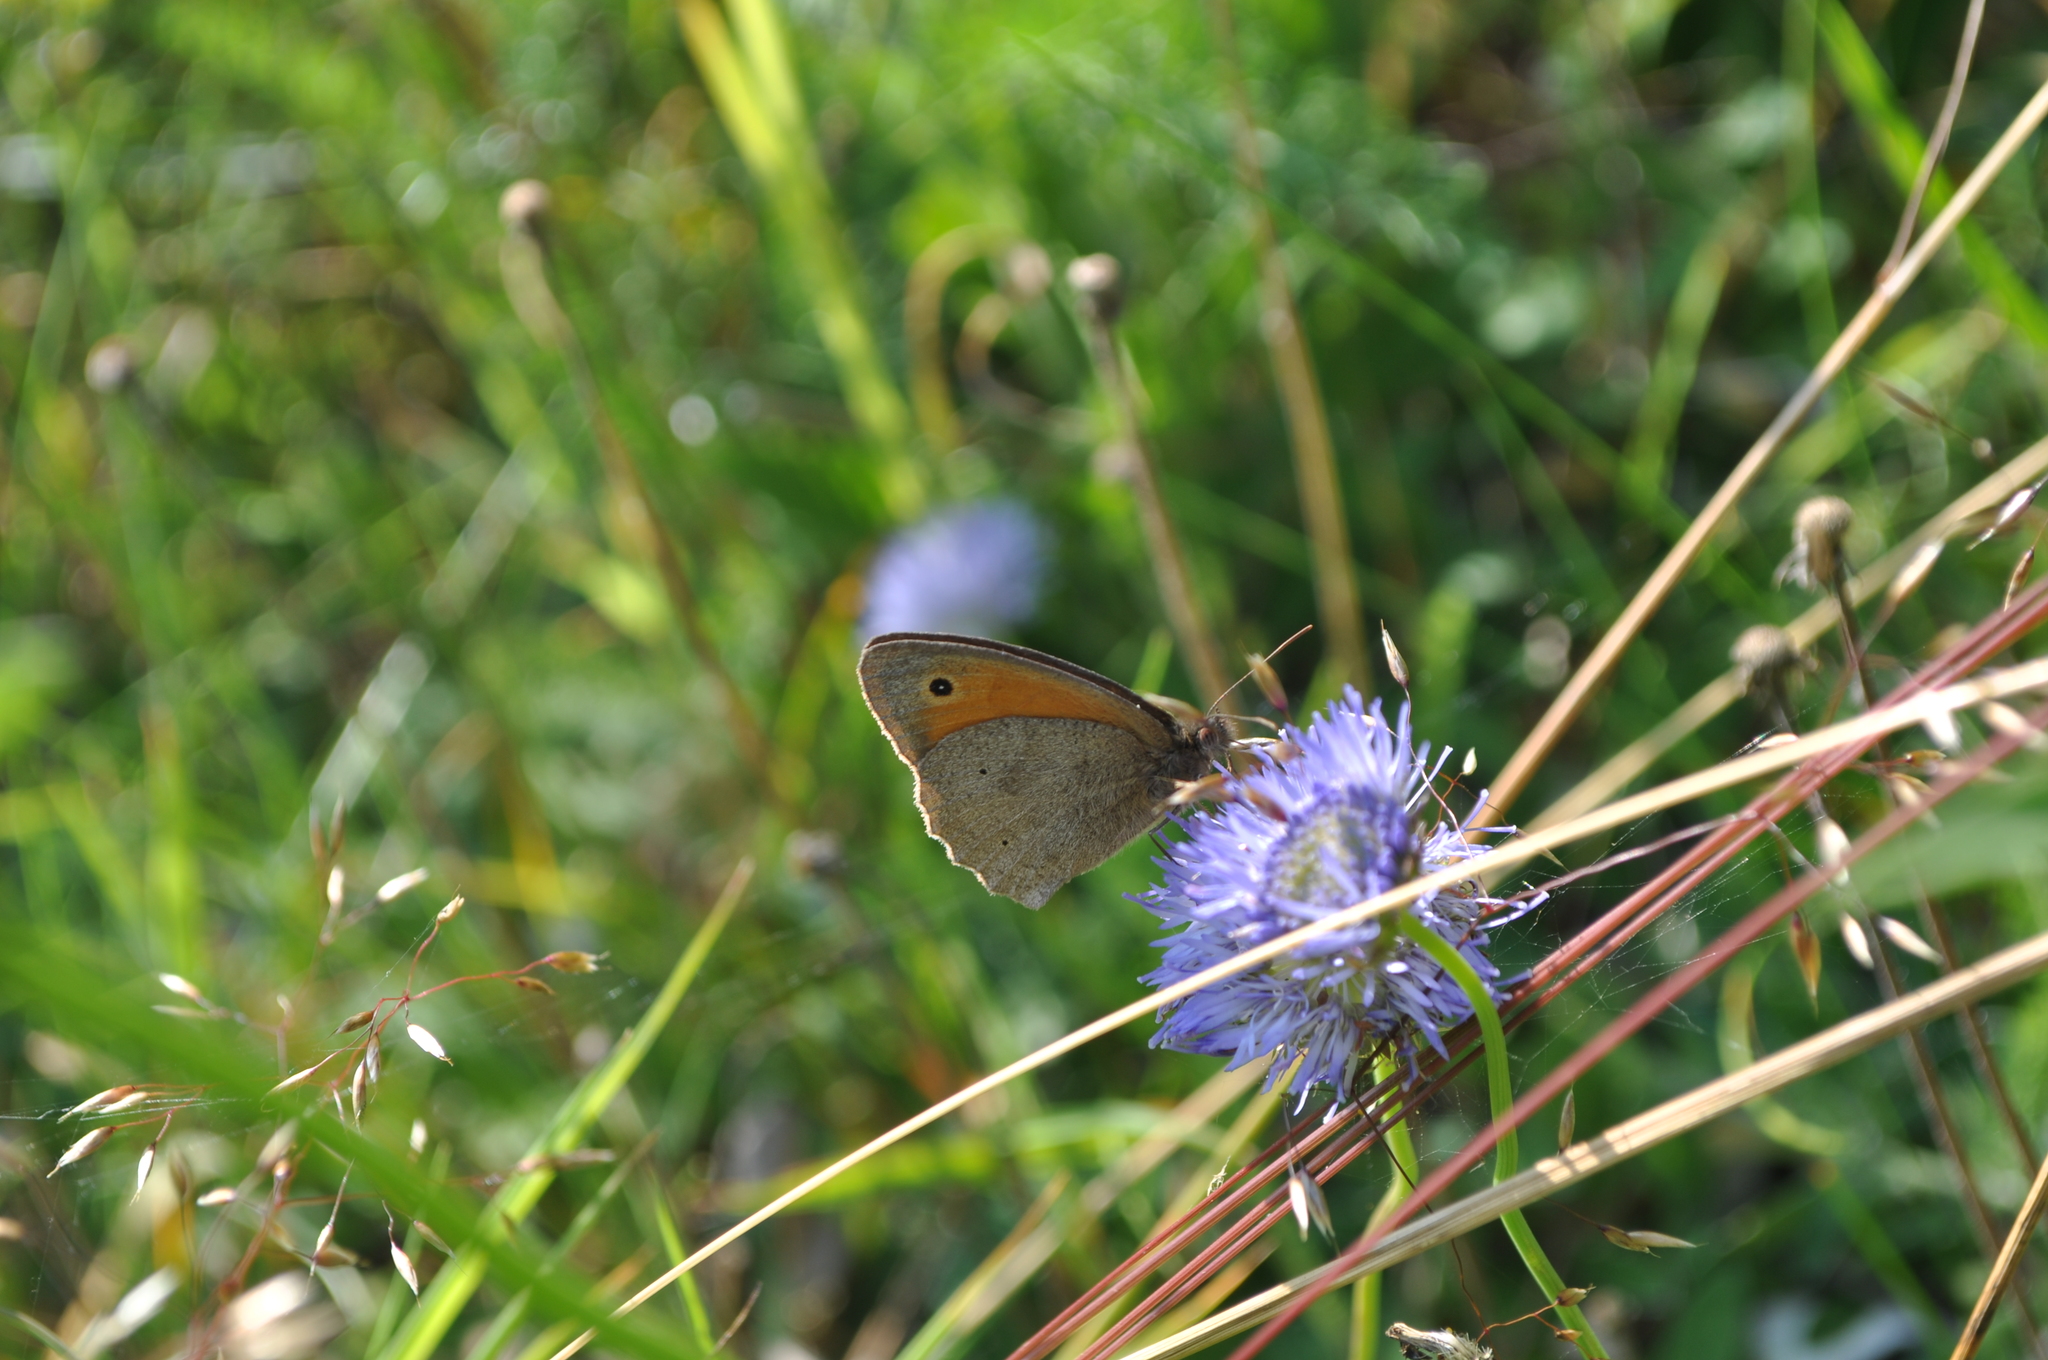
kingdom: Animalia
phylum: Arthropoda
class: Insecta
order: Lepidoptera
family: Nymphalidae
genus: Maniola
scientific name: Maniola jurtina
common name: Meadow brown
